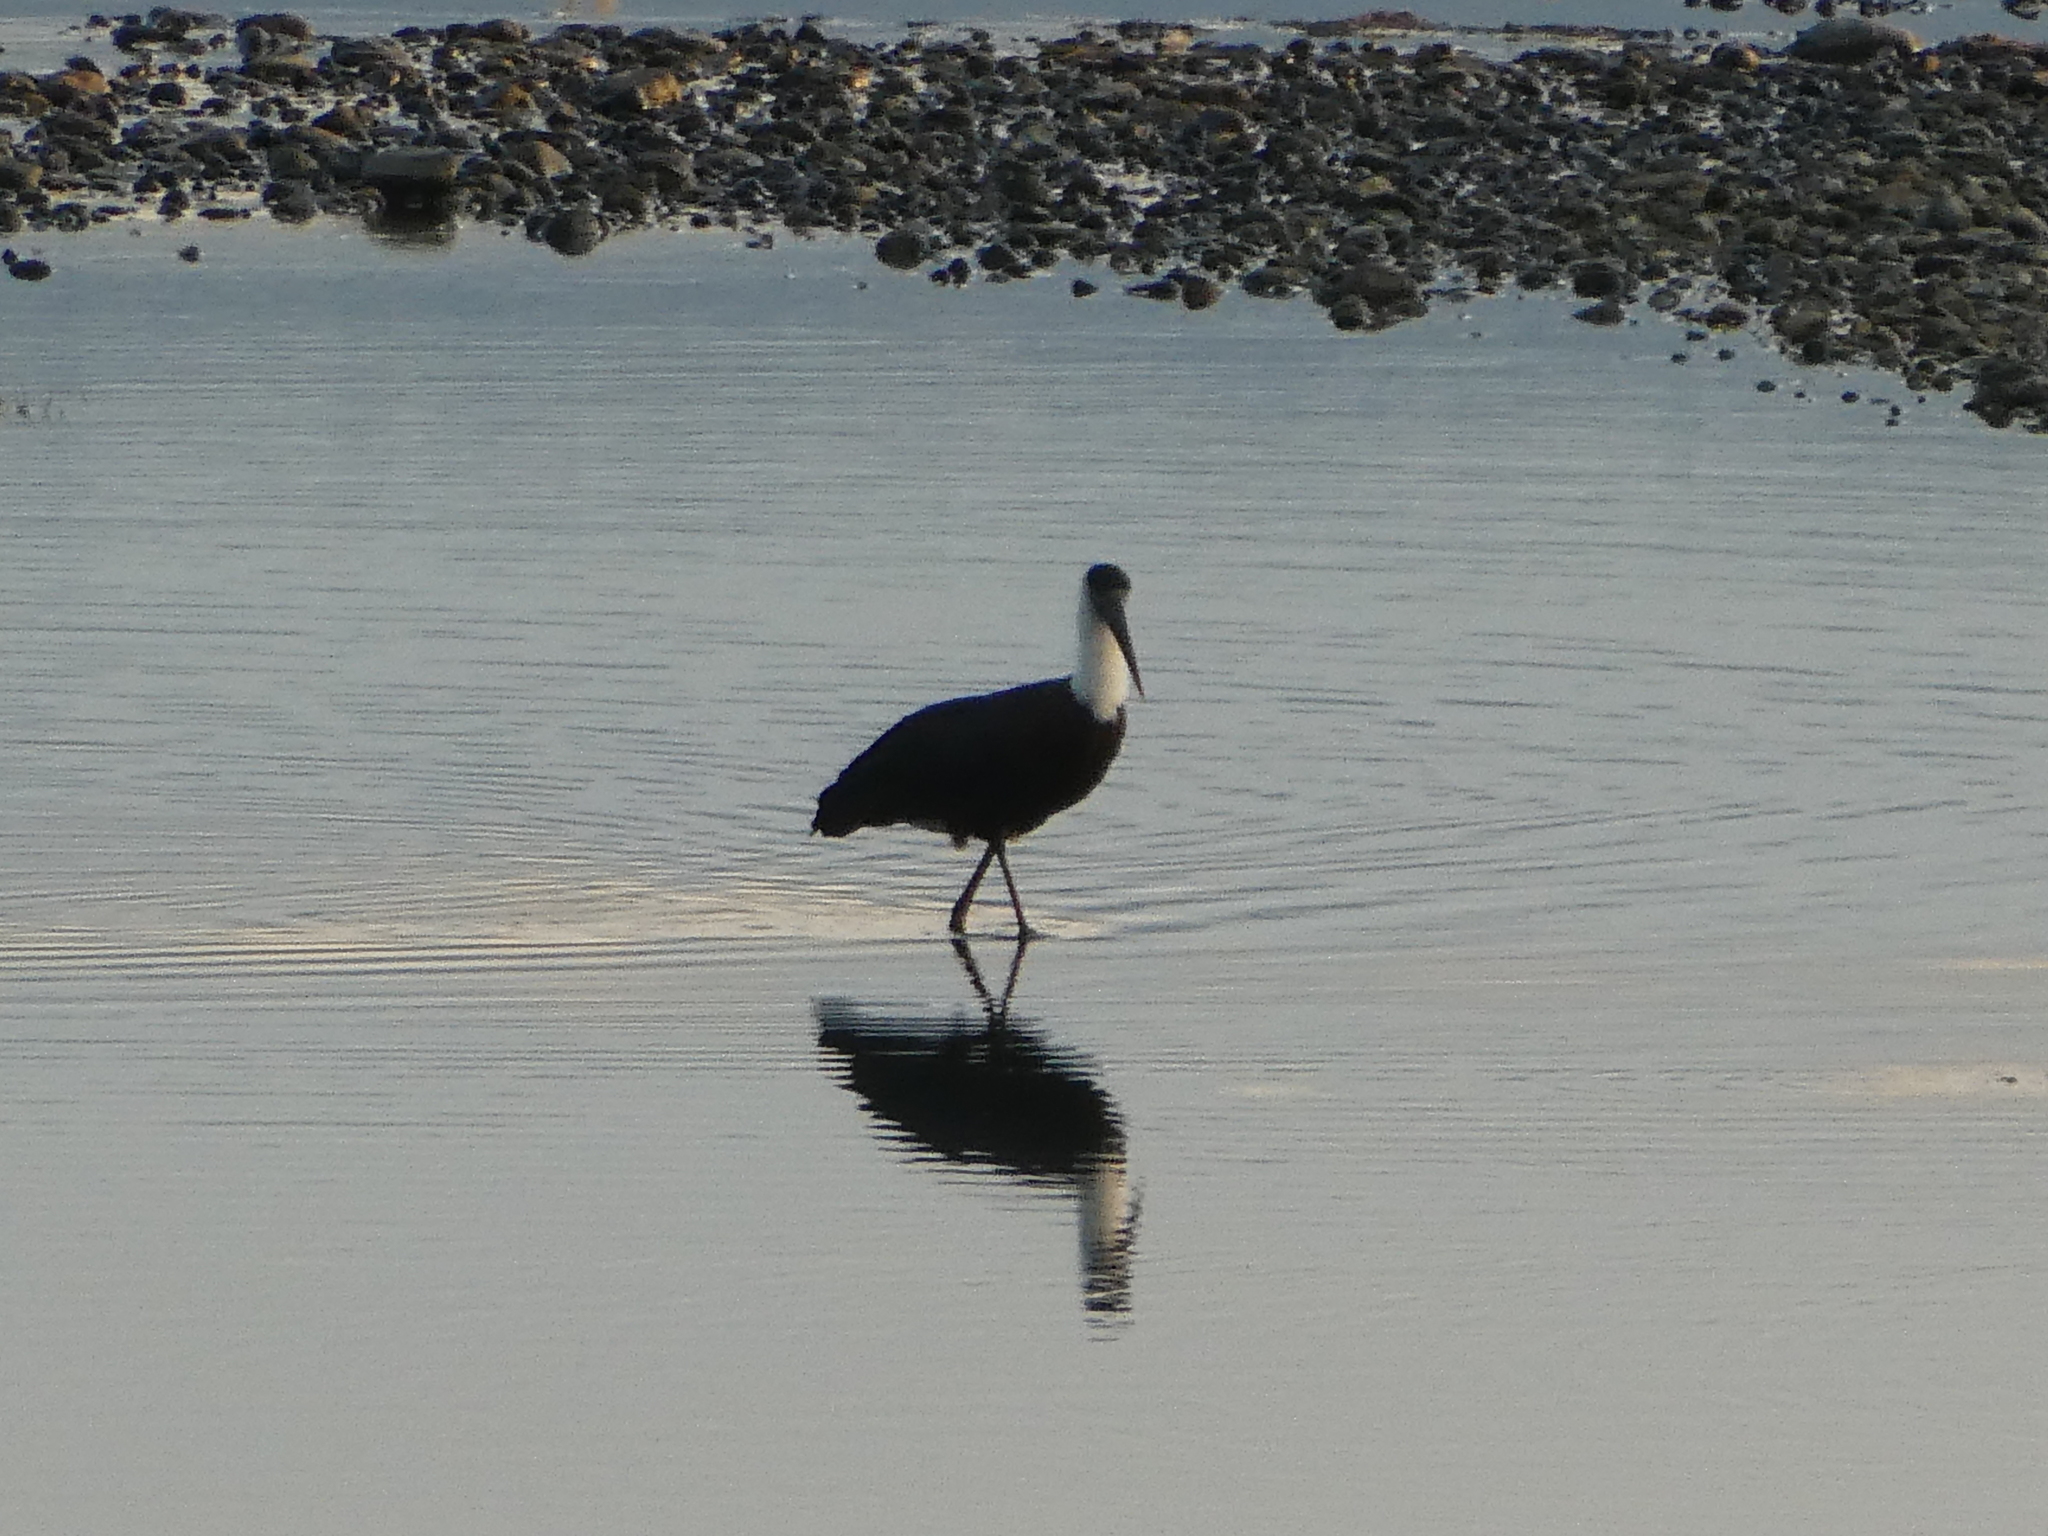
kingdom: Animalia
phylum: Chordata
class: Aves
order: Ciconiiformes
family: Ciconiidae
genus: Ciconia
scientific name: Ciconia episcopus
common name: Woolly-necked stork
